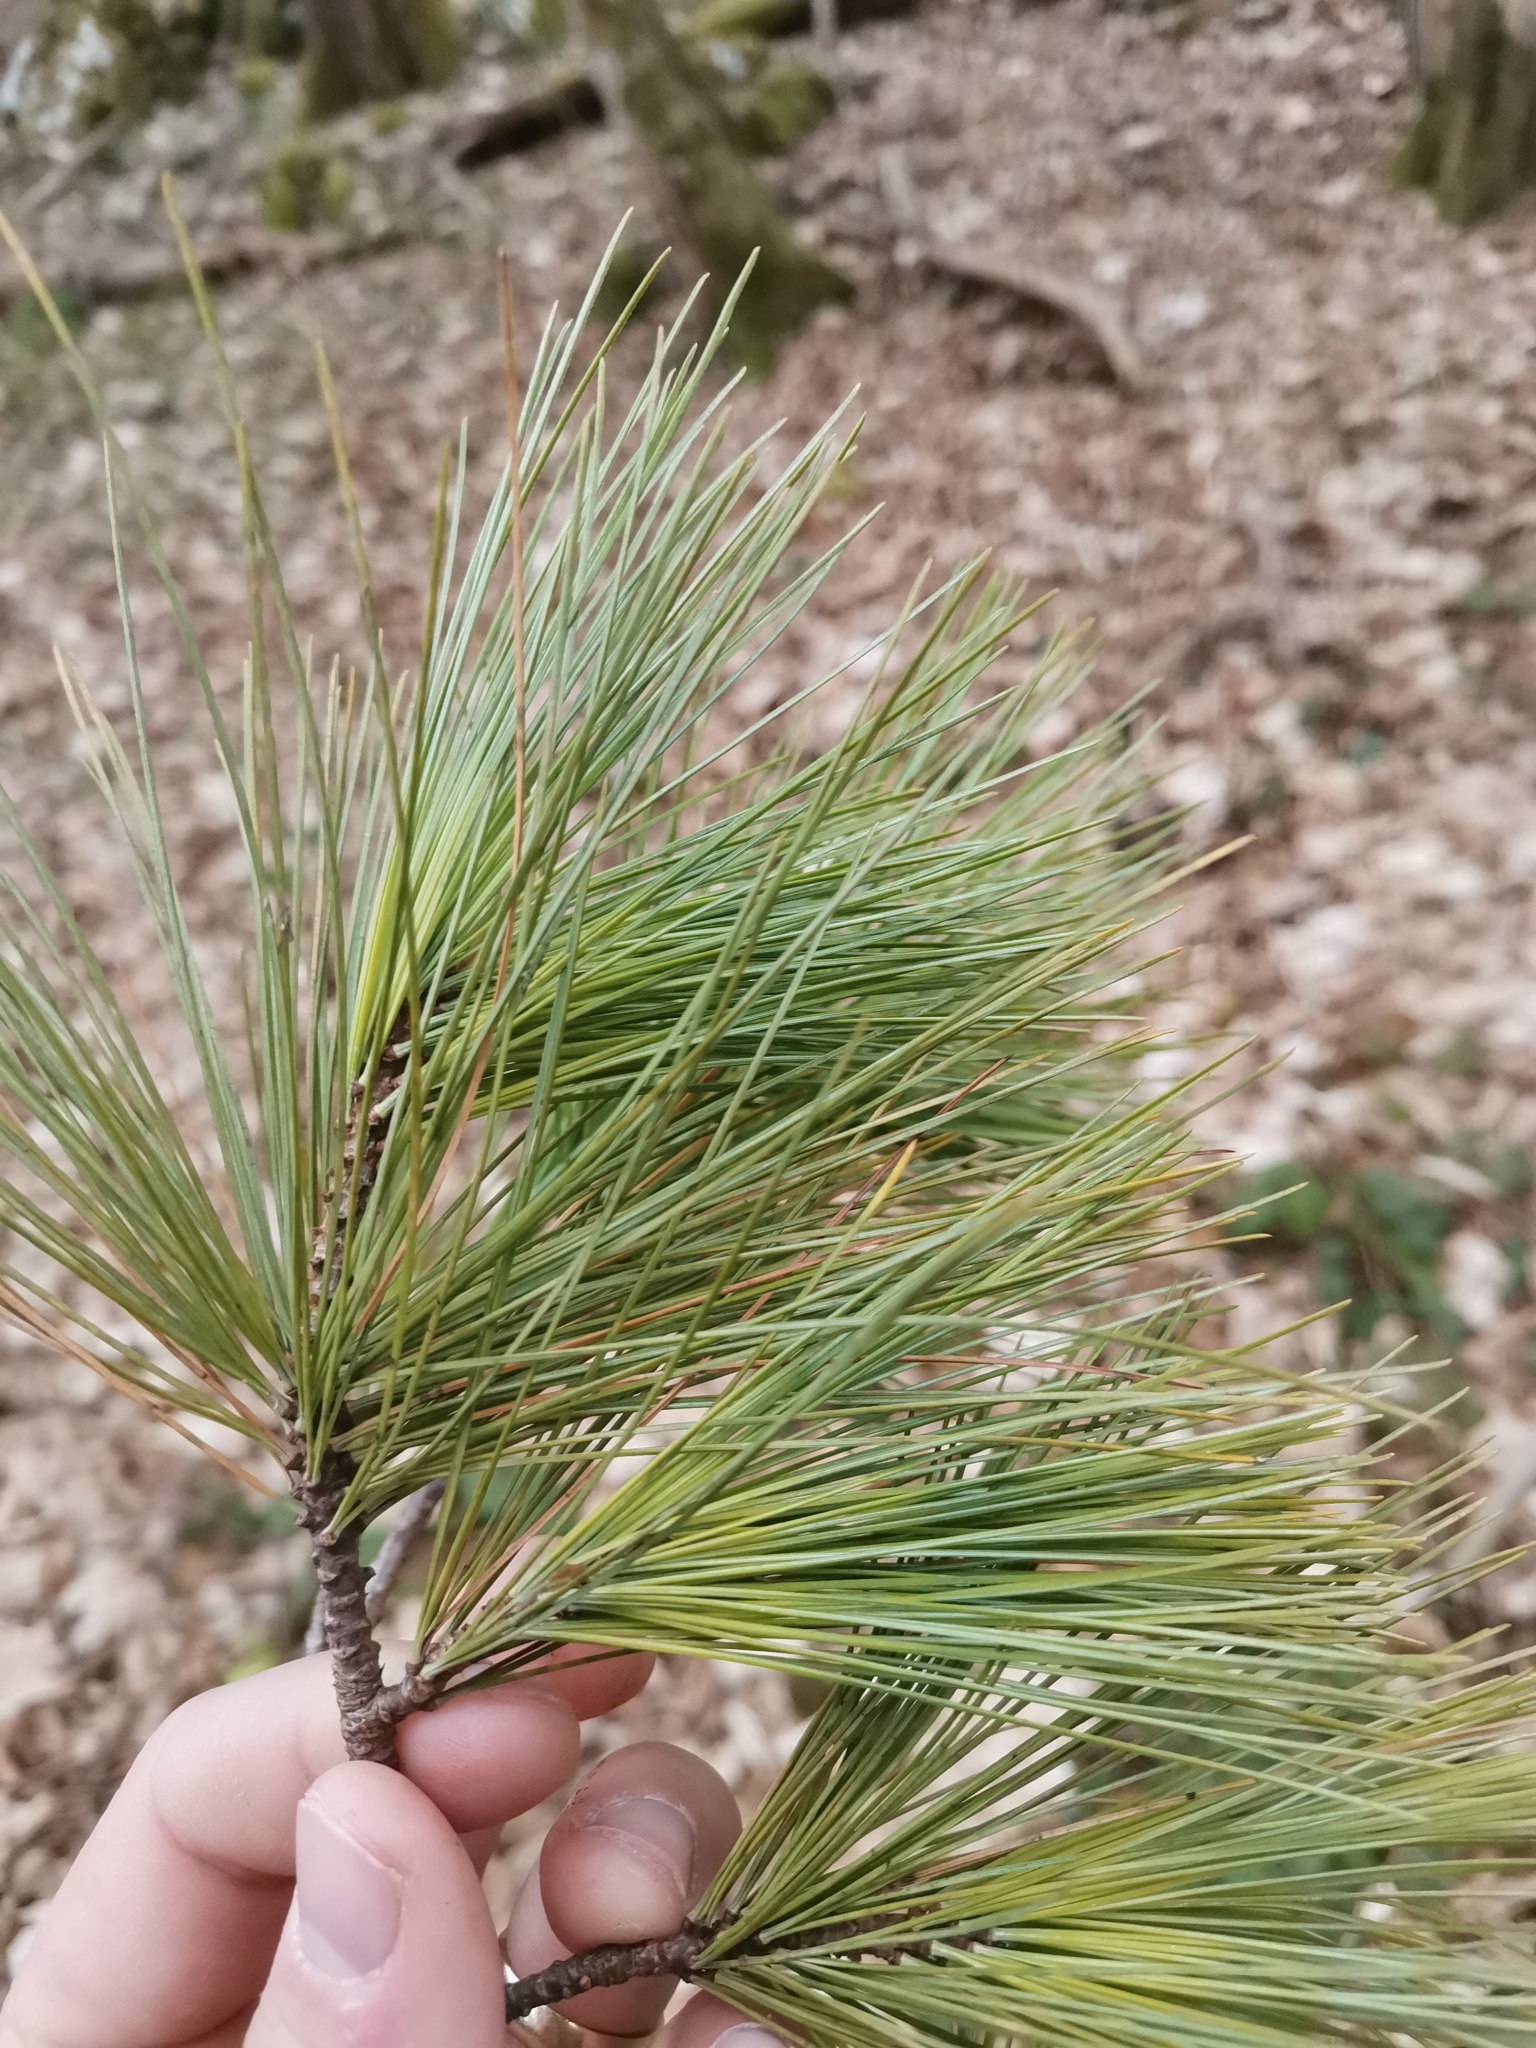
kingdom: Plantae
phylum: Tracheophyta
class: Pinopsida
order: Pinales
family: Pinaceae
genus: Pinus
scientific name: Pinus strobus
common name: Weymouth pine
